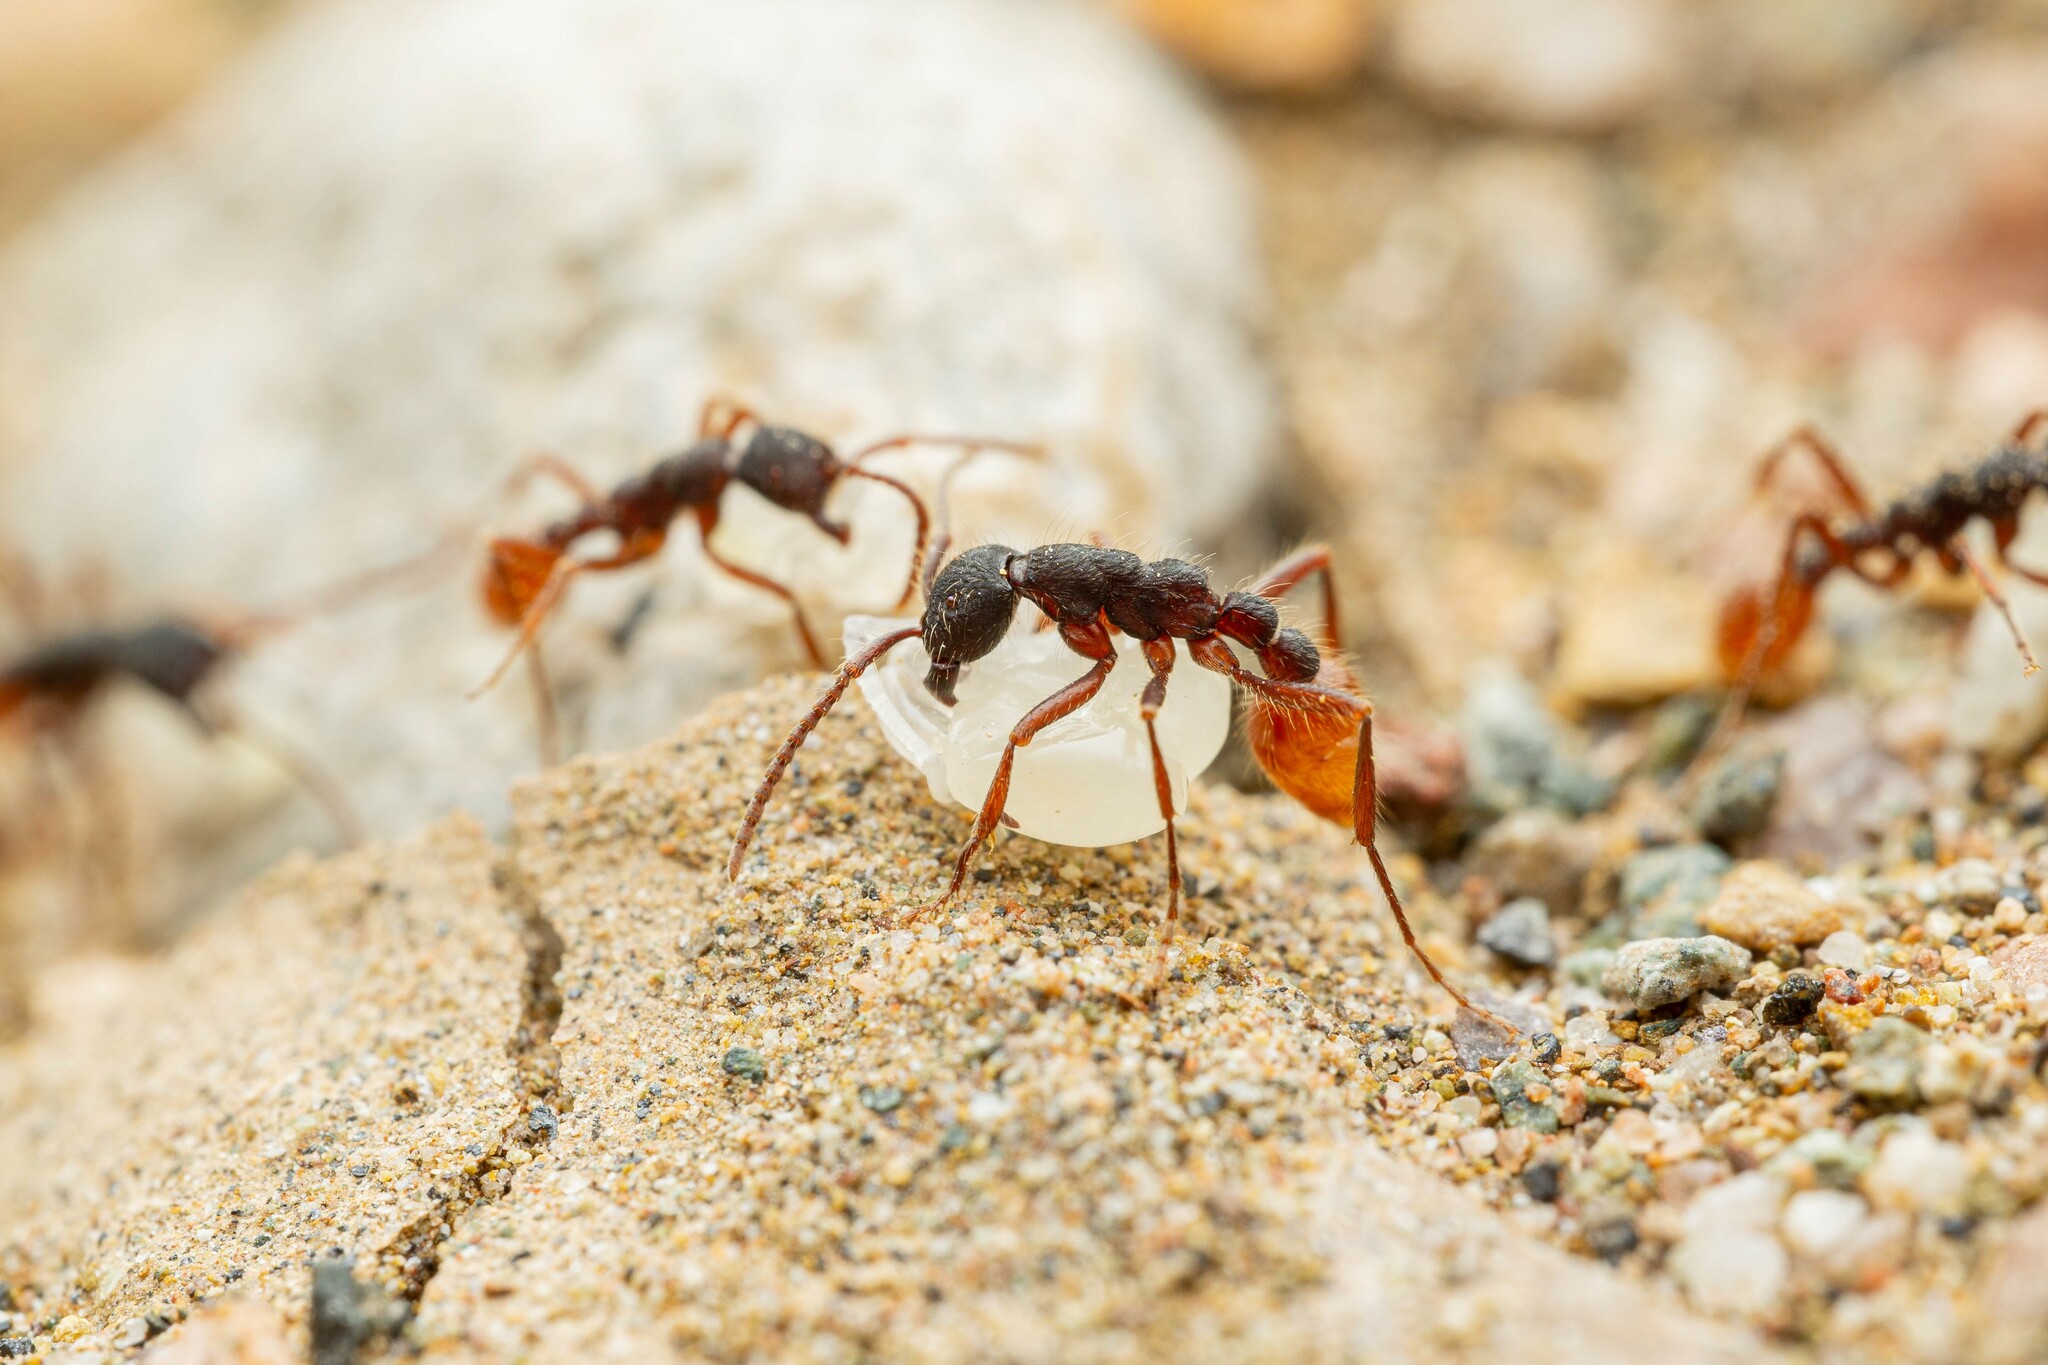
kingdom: Animalia
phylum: Arthropoda
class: Insecta
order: Hymenoptera
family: Formicidae
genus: Neivamyrmex
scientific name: Neivamyrmex texanus
